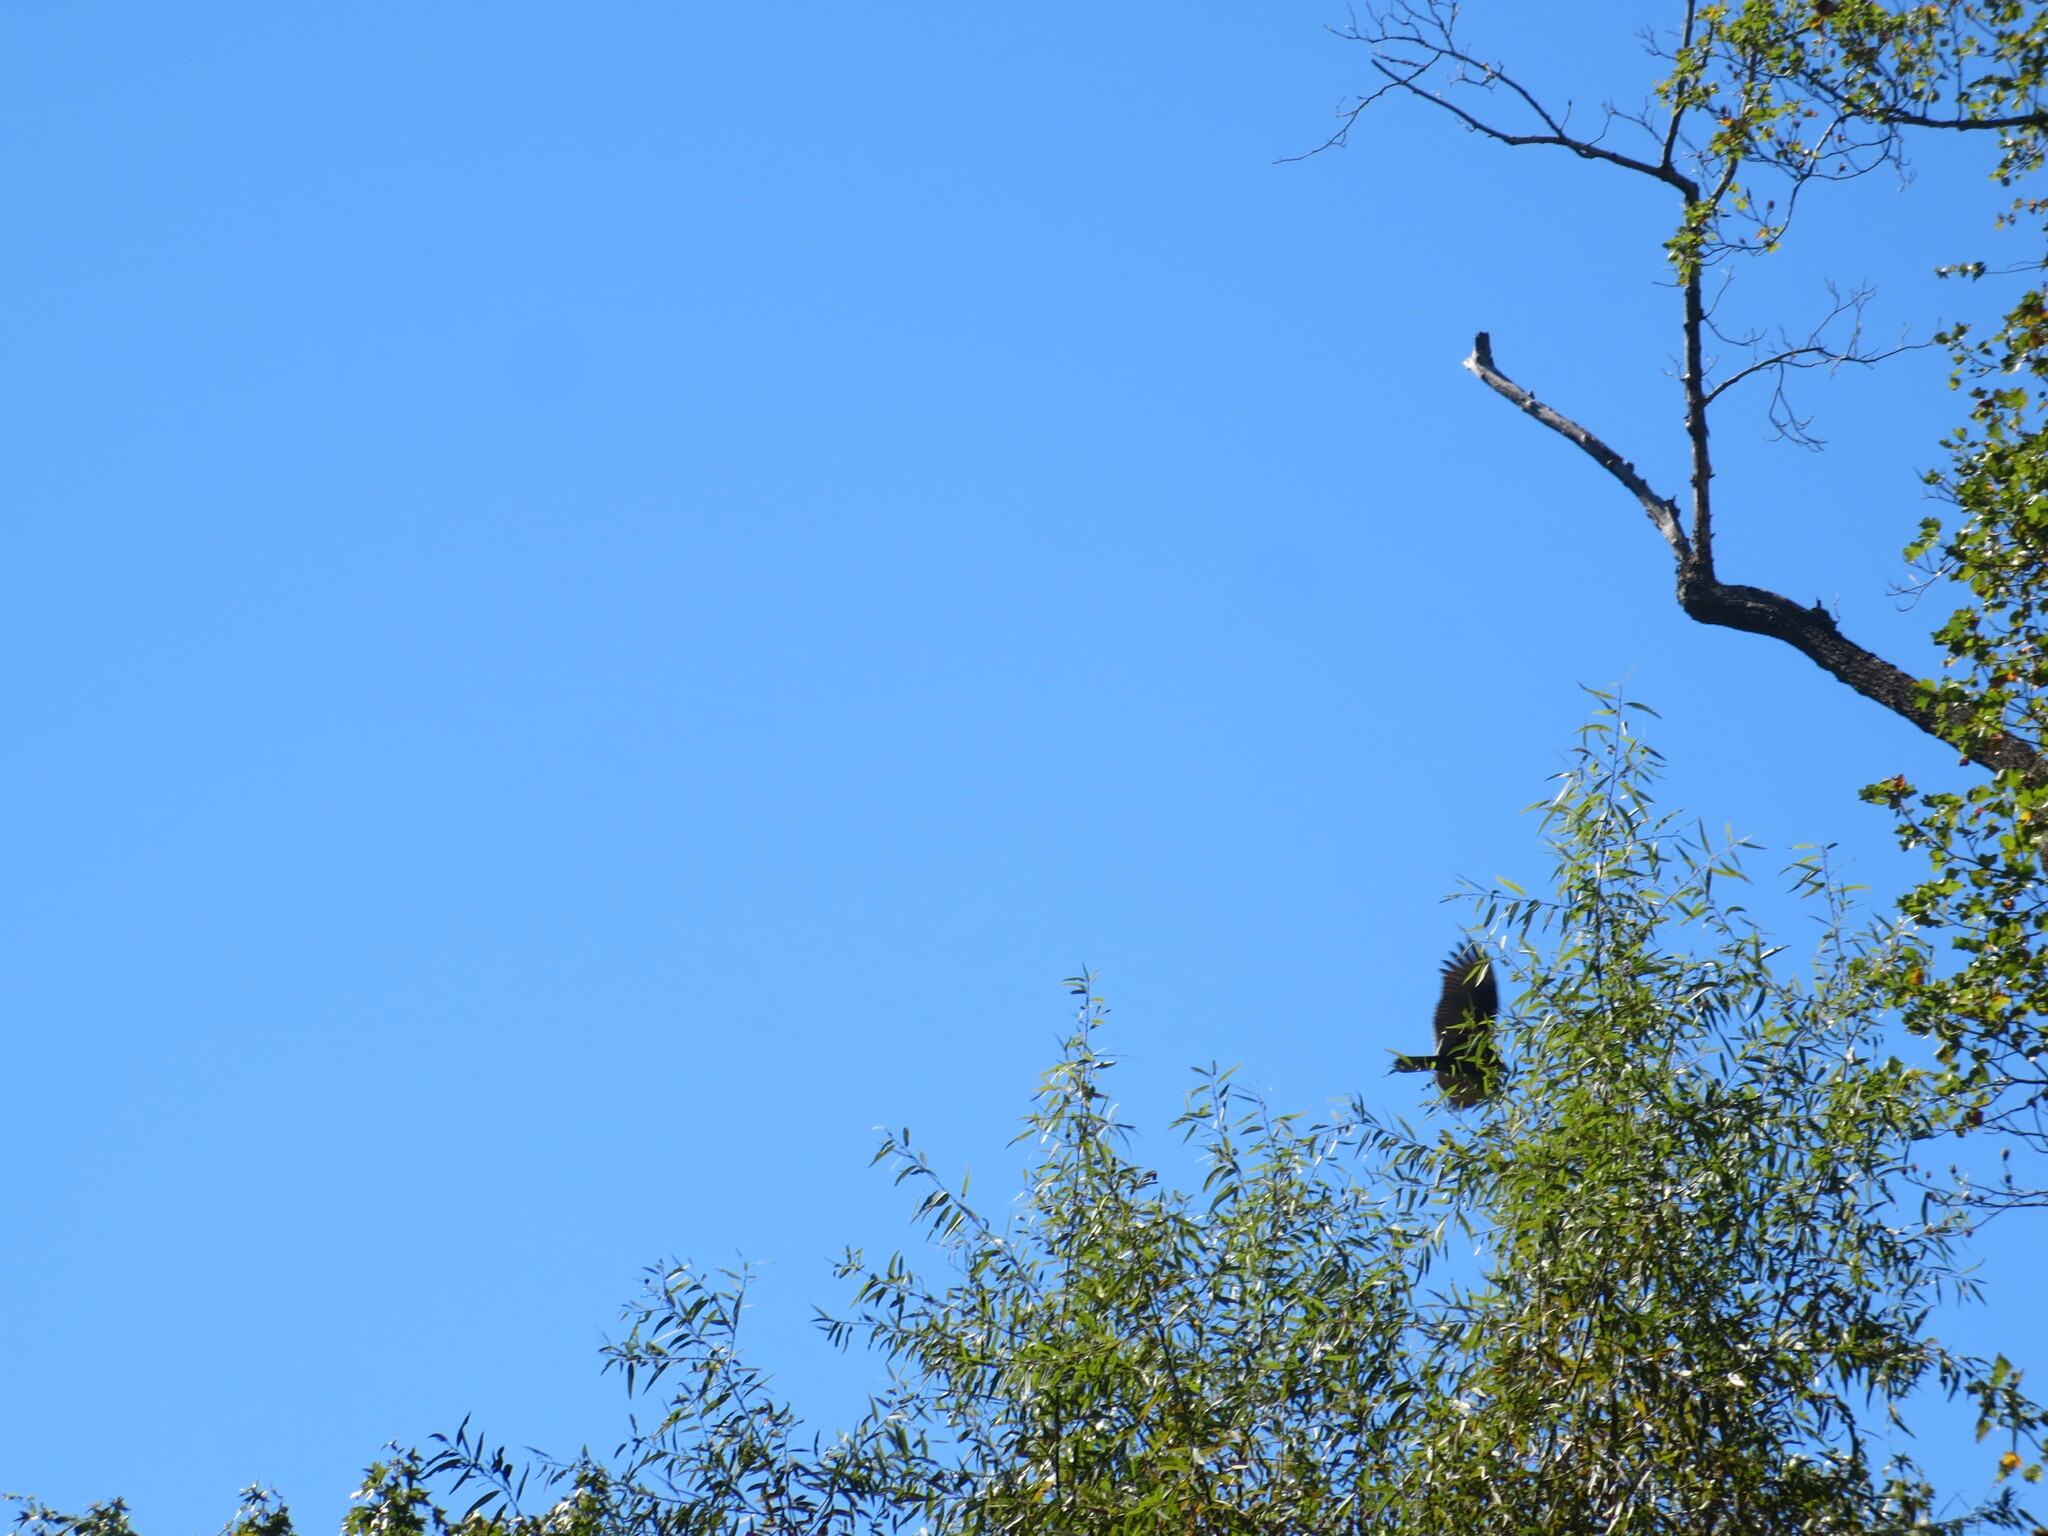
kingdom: Animalia
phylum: Chordata
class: Aves
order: Accipitriformes
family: Cathartidae
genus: Cathartes
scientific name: Cathartes aura
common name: Turkey vulture
